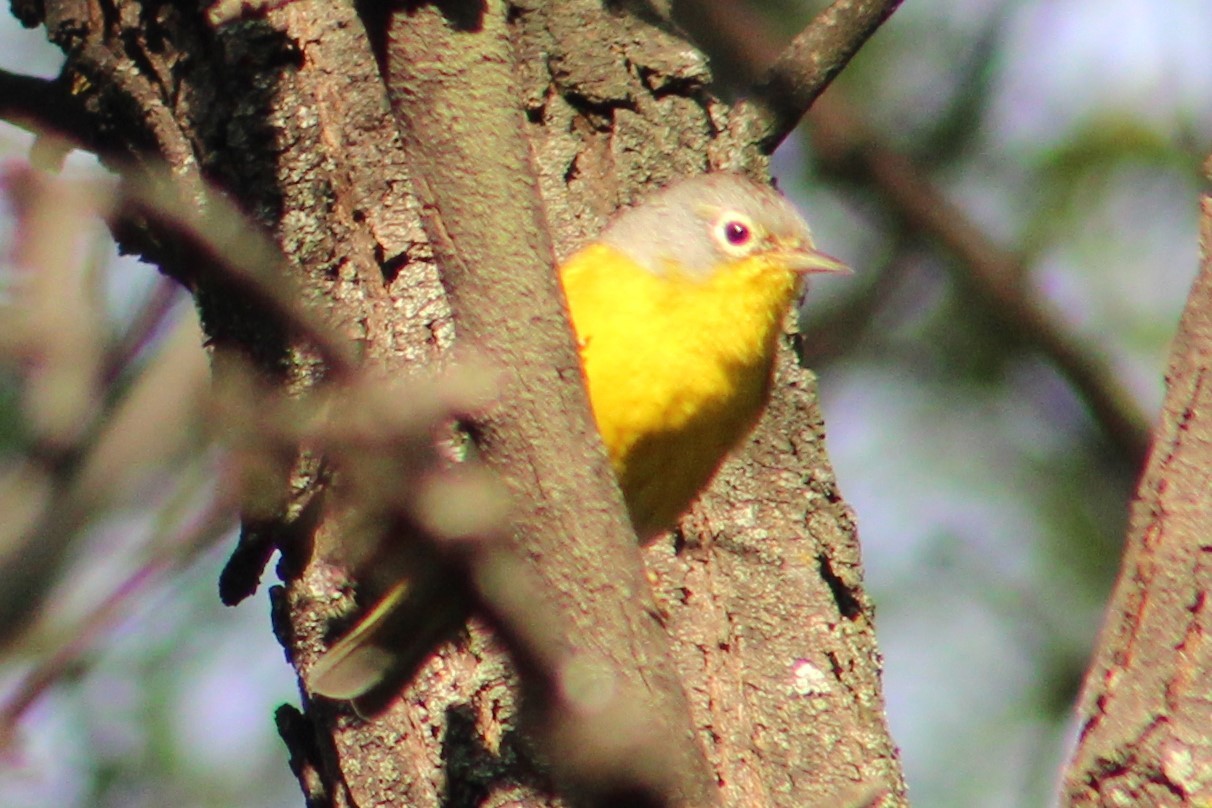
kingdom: Animalia
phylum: Chordata
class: Aves
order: Passeriformes
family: Parulidae
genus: Leiothlypis
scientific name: Leiothlypis ruficapilla
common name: Nashville warbler
